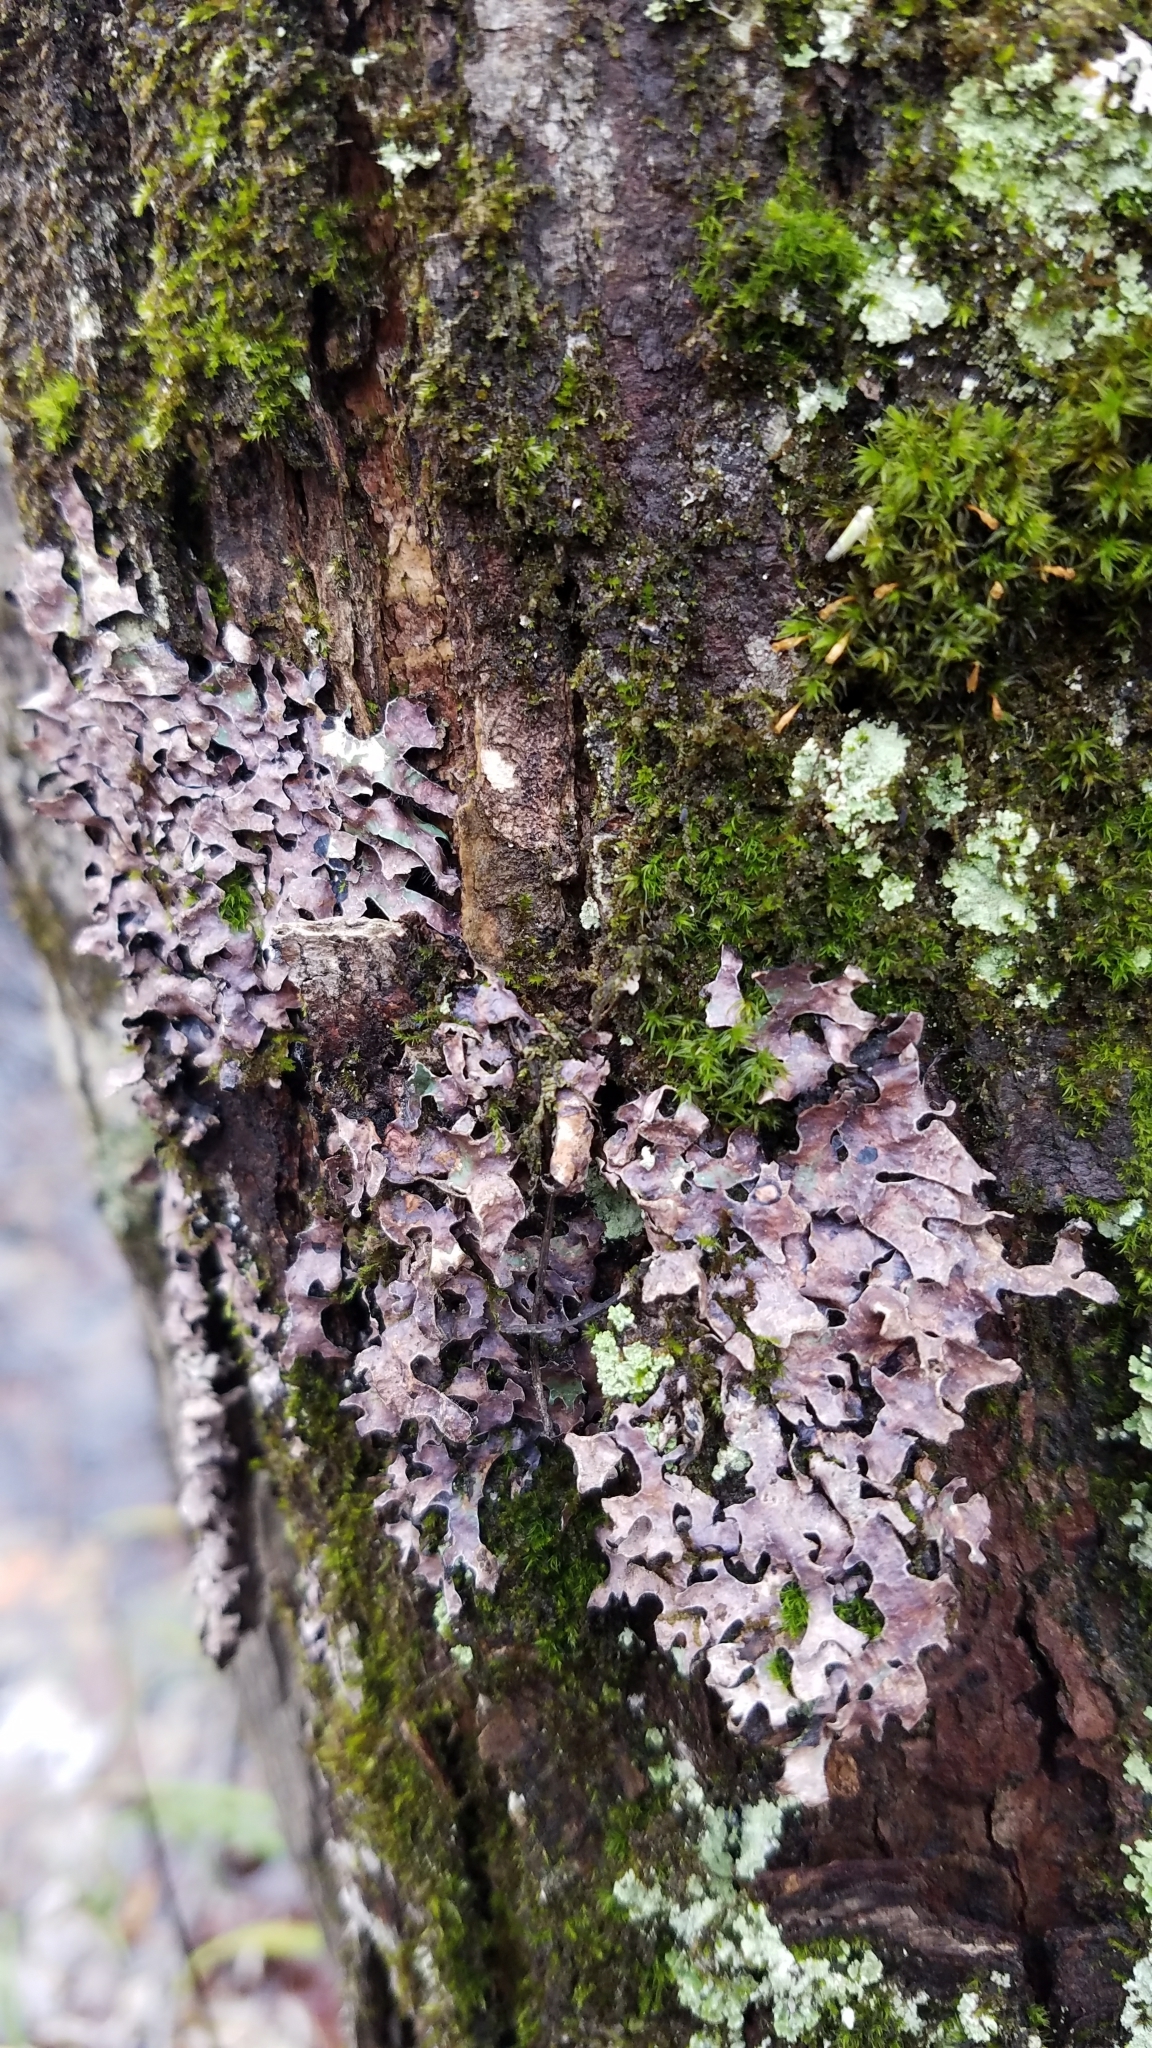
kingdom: Fungi
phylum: Ascomycota
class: Lecanoromycetes
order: Lecanorales
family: Parmeliaceae
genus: Parmelia
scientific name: Parmelia sulcata
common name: Netted shield lichen
